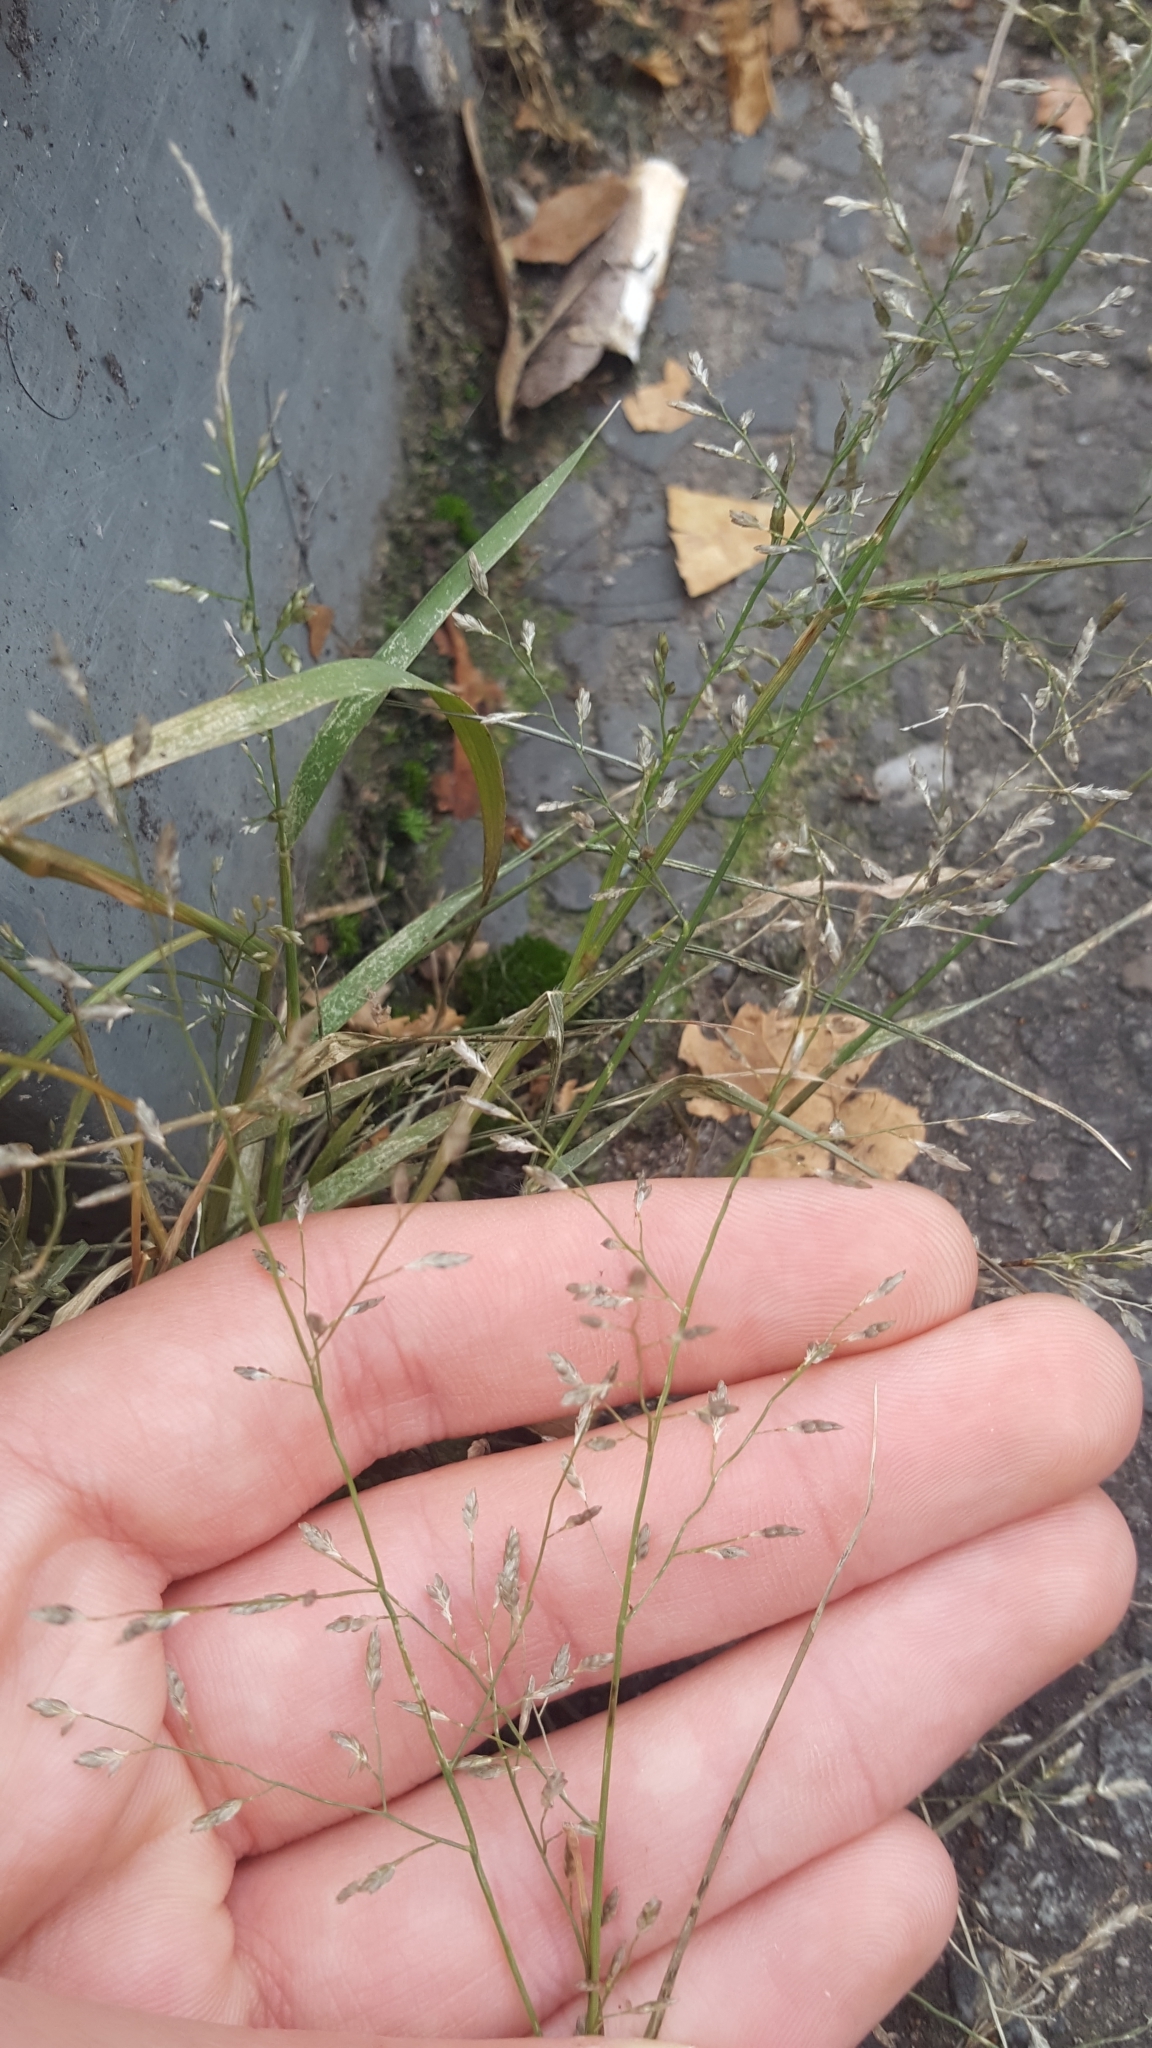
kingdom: Plantae
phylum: Tracheophyta
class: Liliopsida
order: Poales
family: Poaceae
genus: Eragrostis
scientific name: Eragrostis minor
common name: Small love-grass
